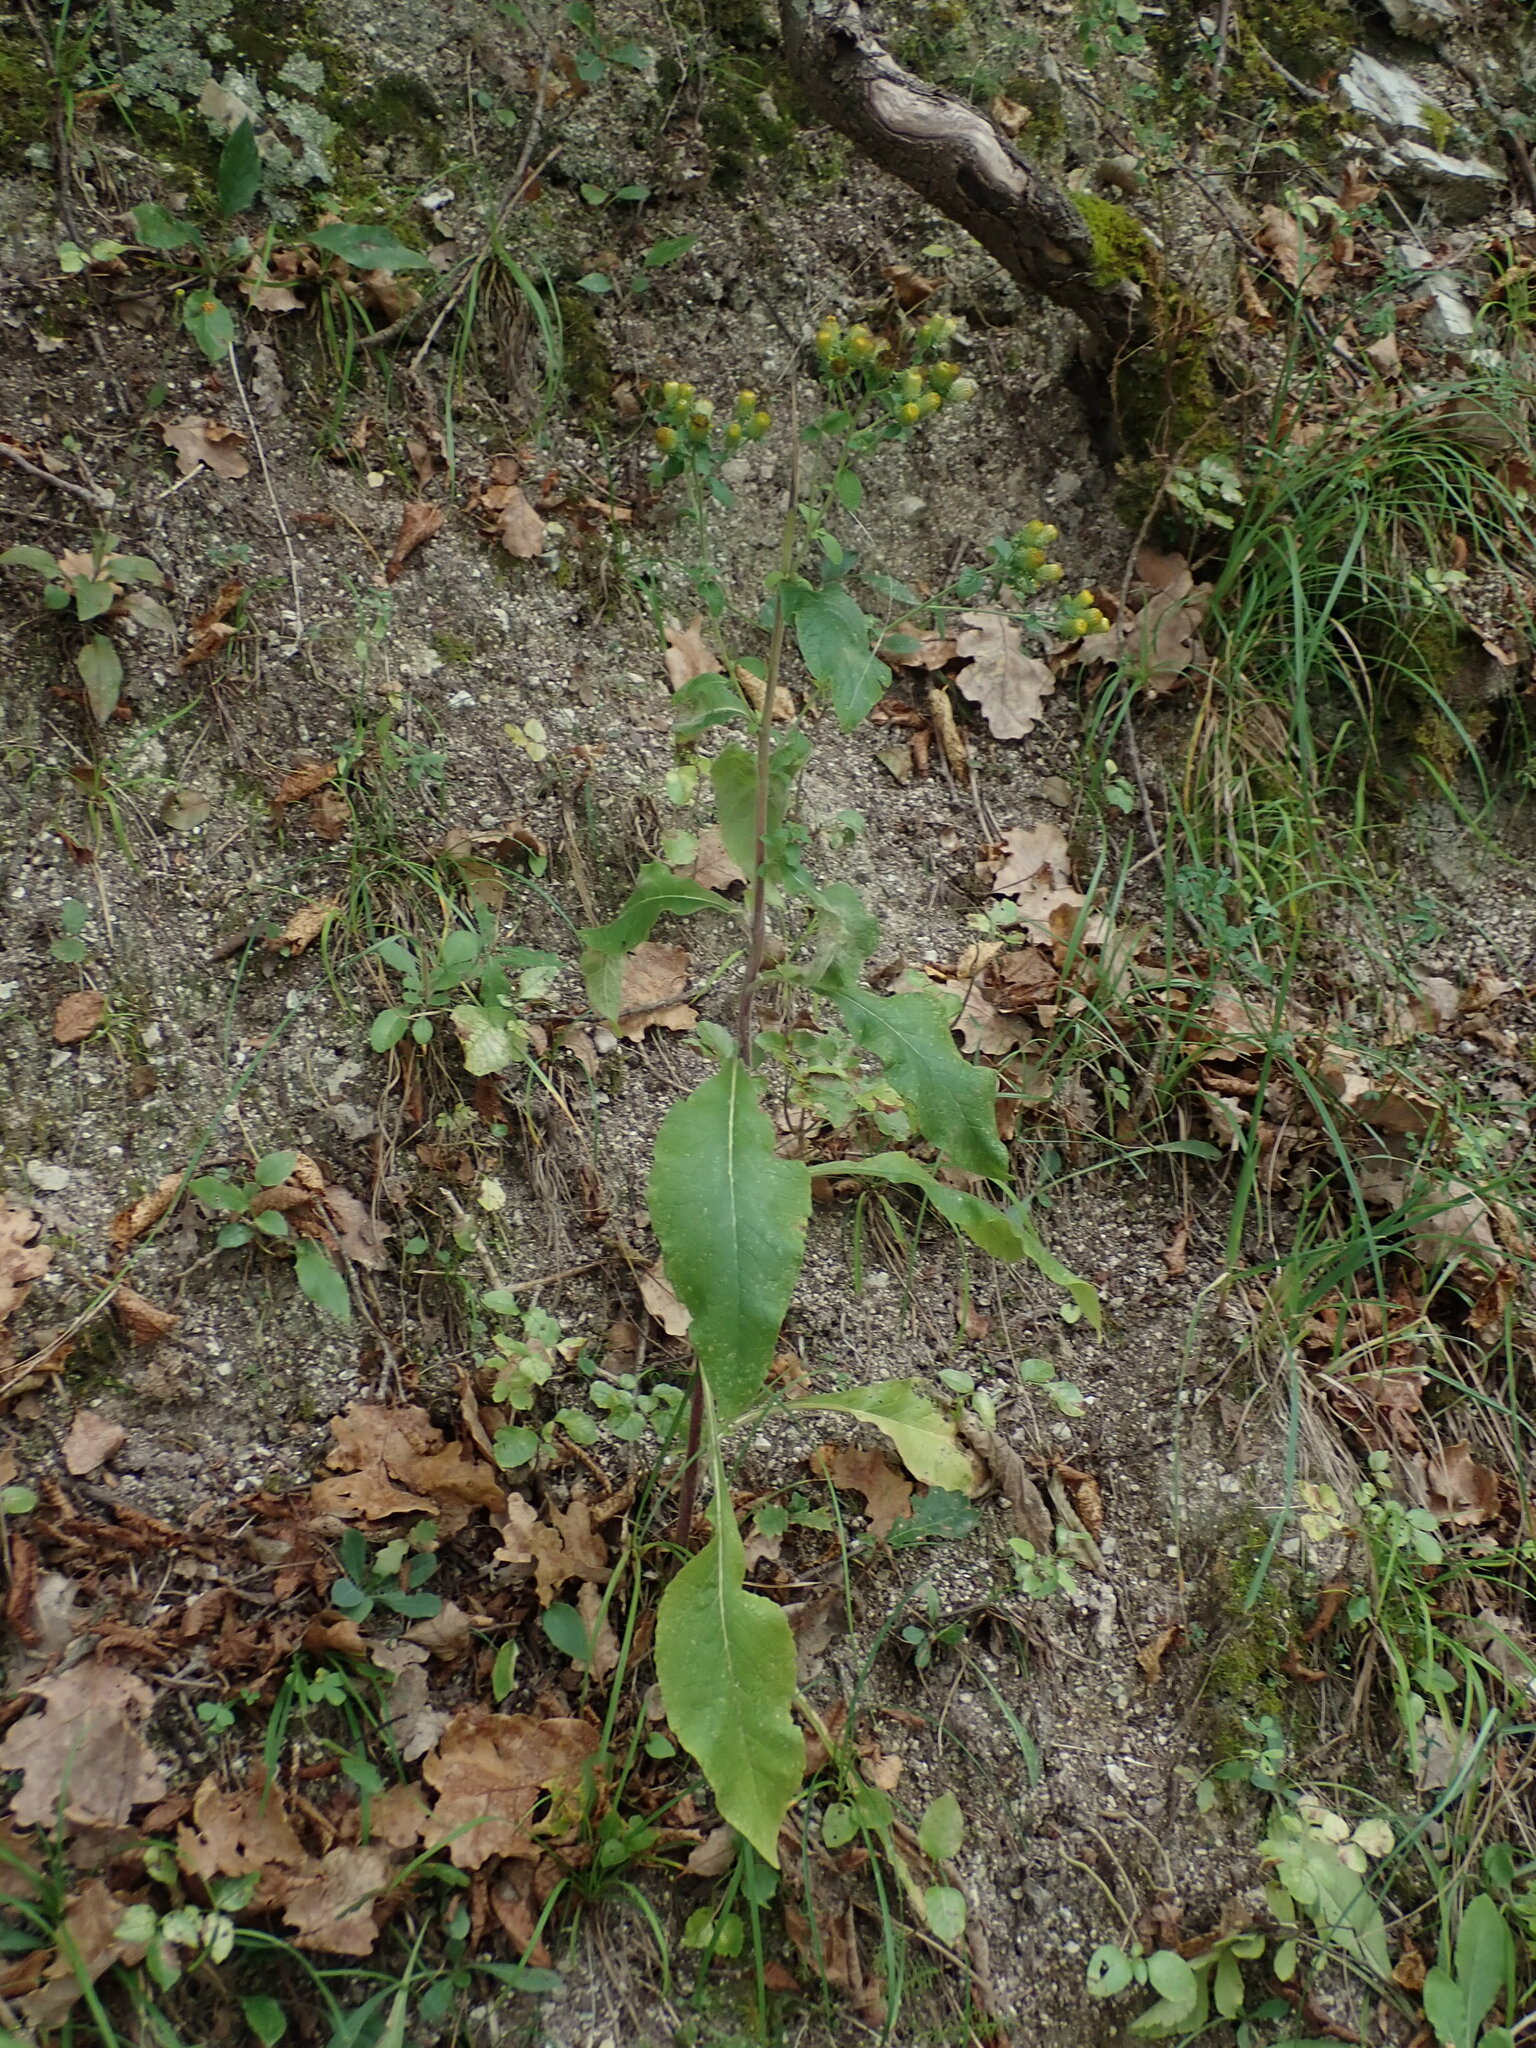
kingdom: Plantae
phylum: Tracheophyta
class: Magnoliopsida
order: Asterales
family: Asteraceae
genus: Pentanema
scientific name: Pentanema squarrosum
